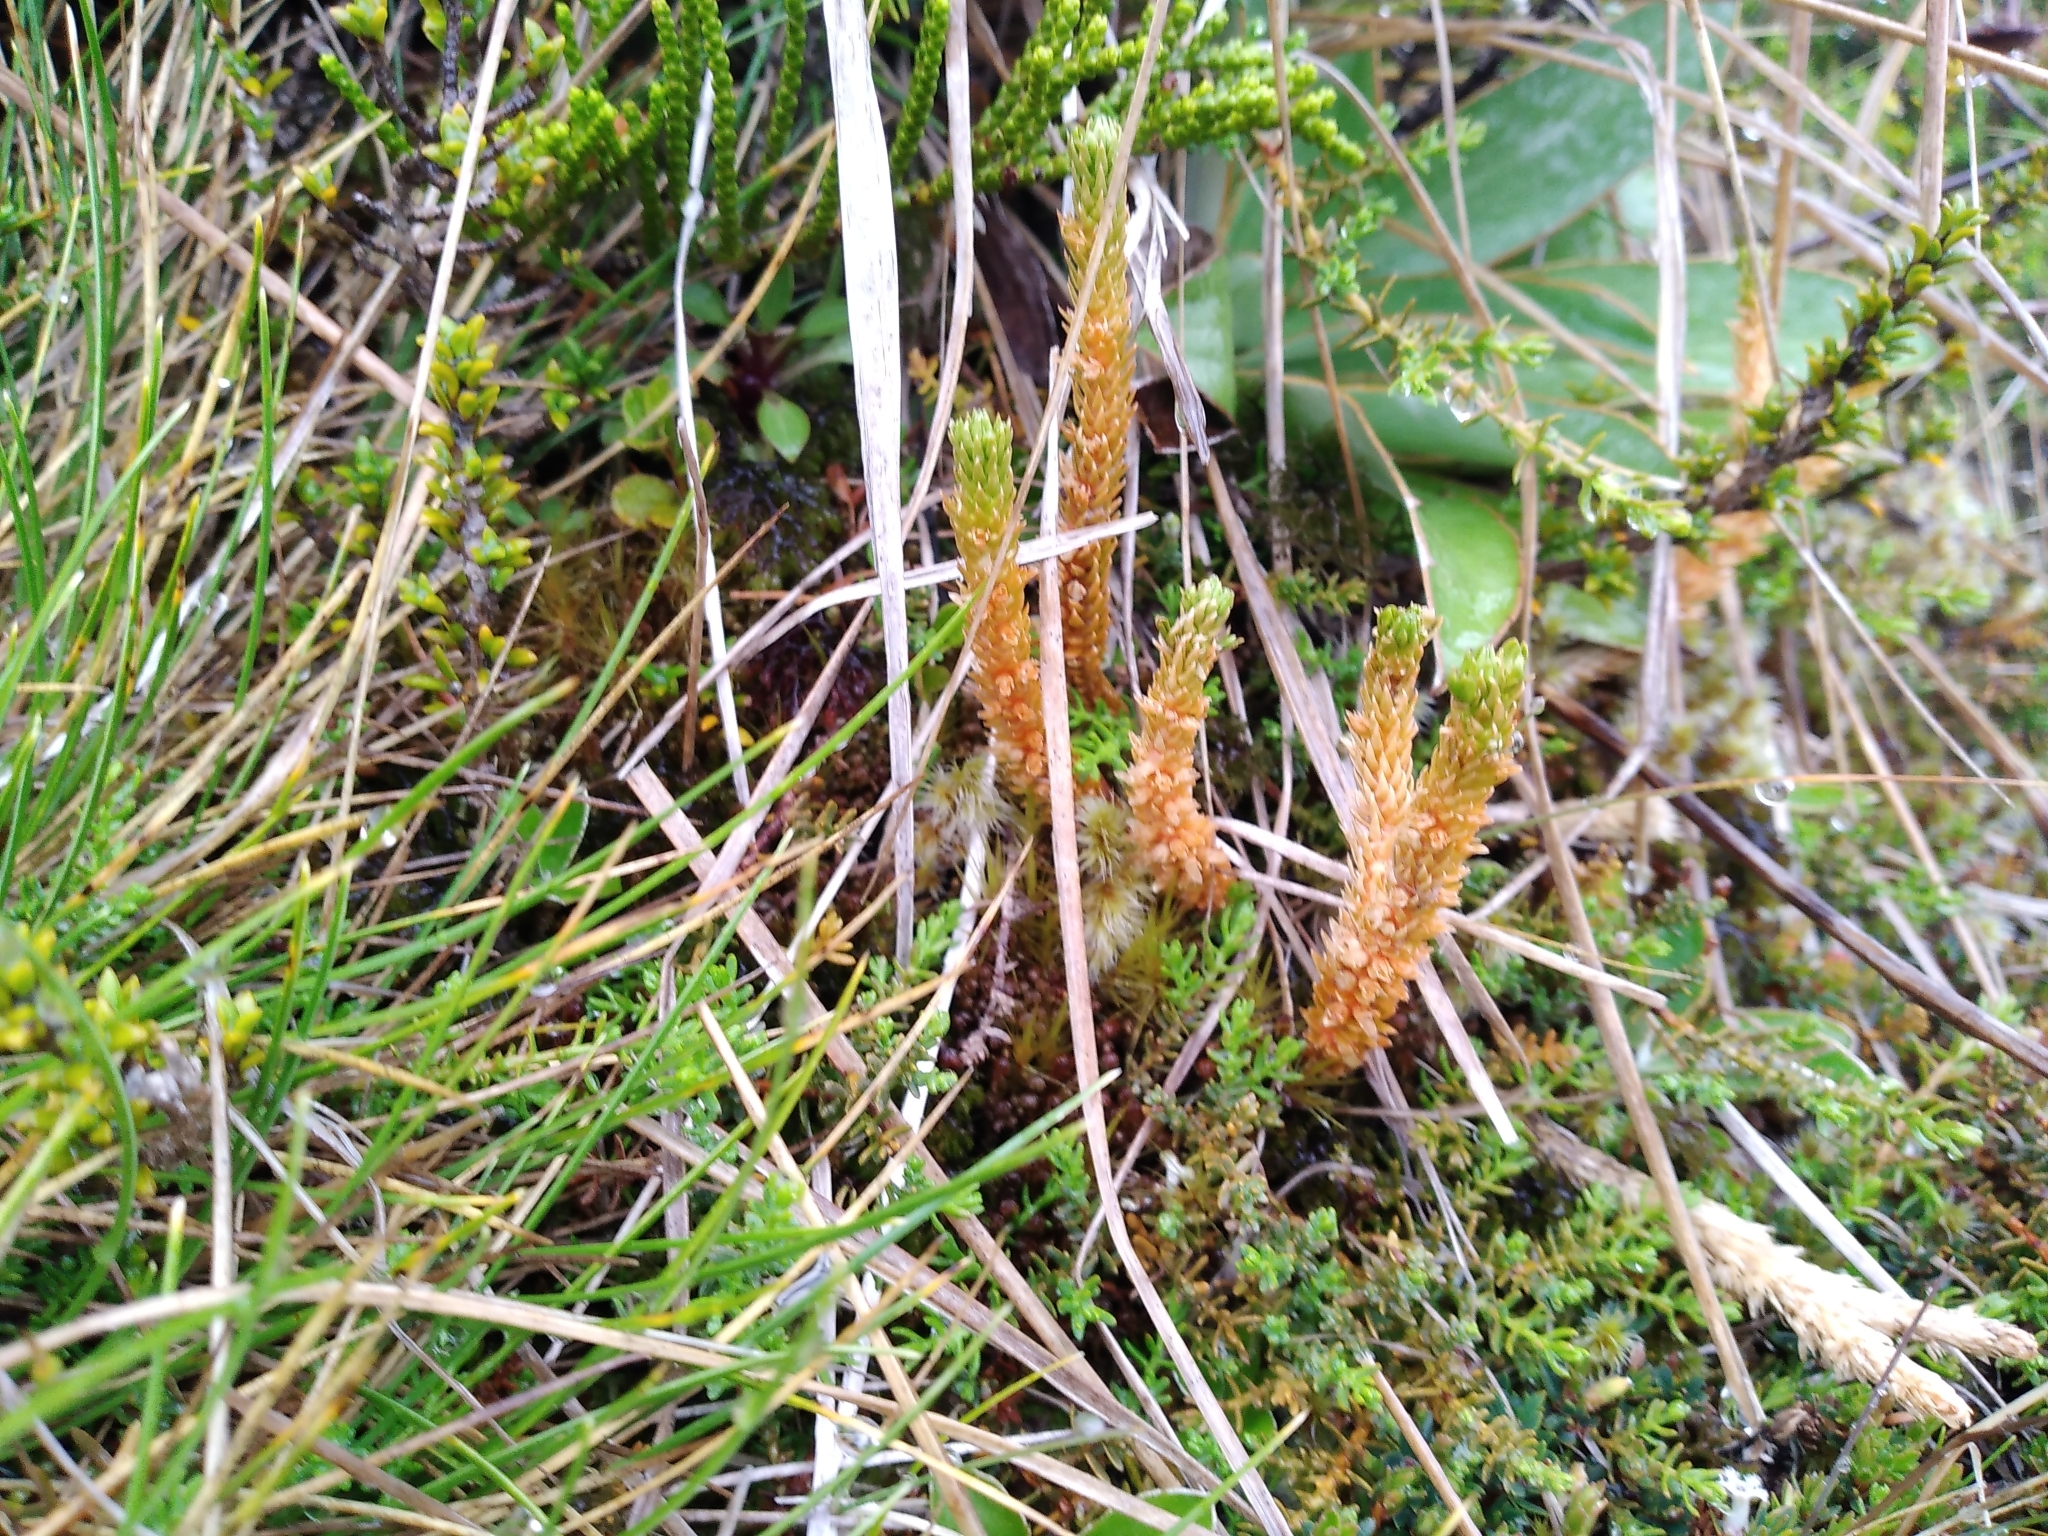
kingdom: Plantae
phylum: Tracheophyta
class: Lycopodiopsida
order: Lycopodiales
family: Lycopodiaceae
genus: Huperzia
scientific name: Huperzia australiana
